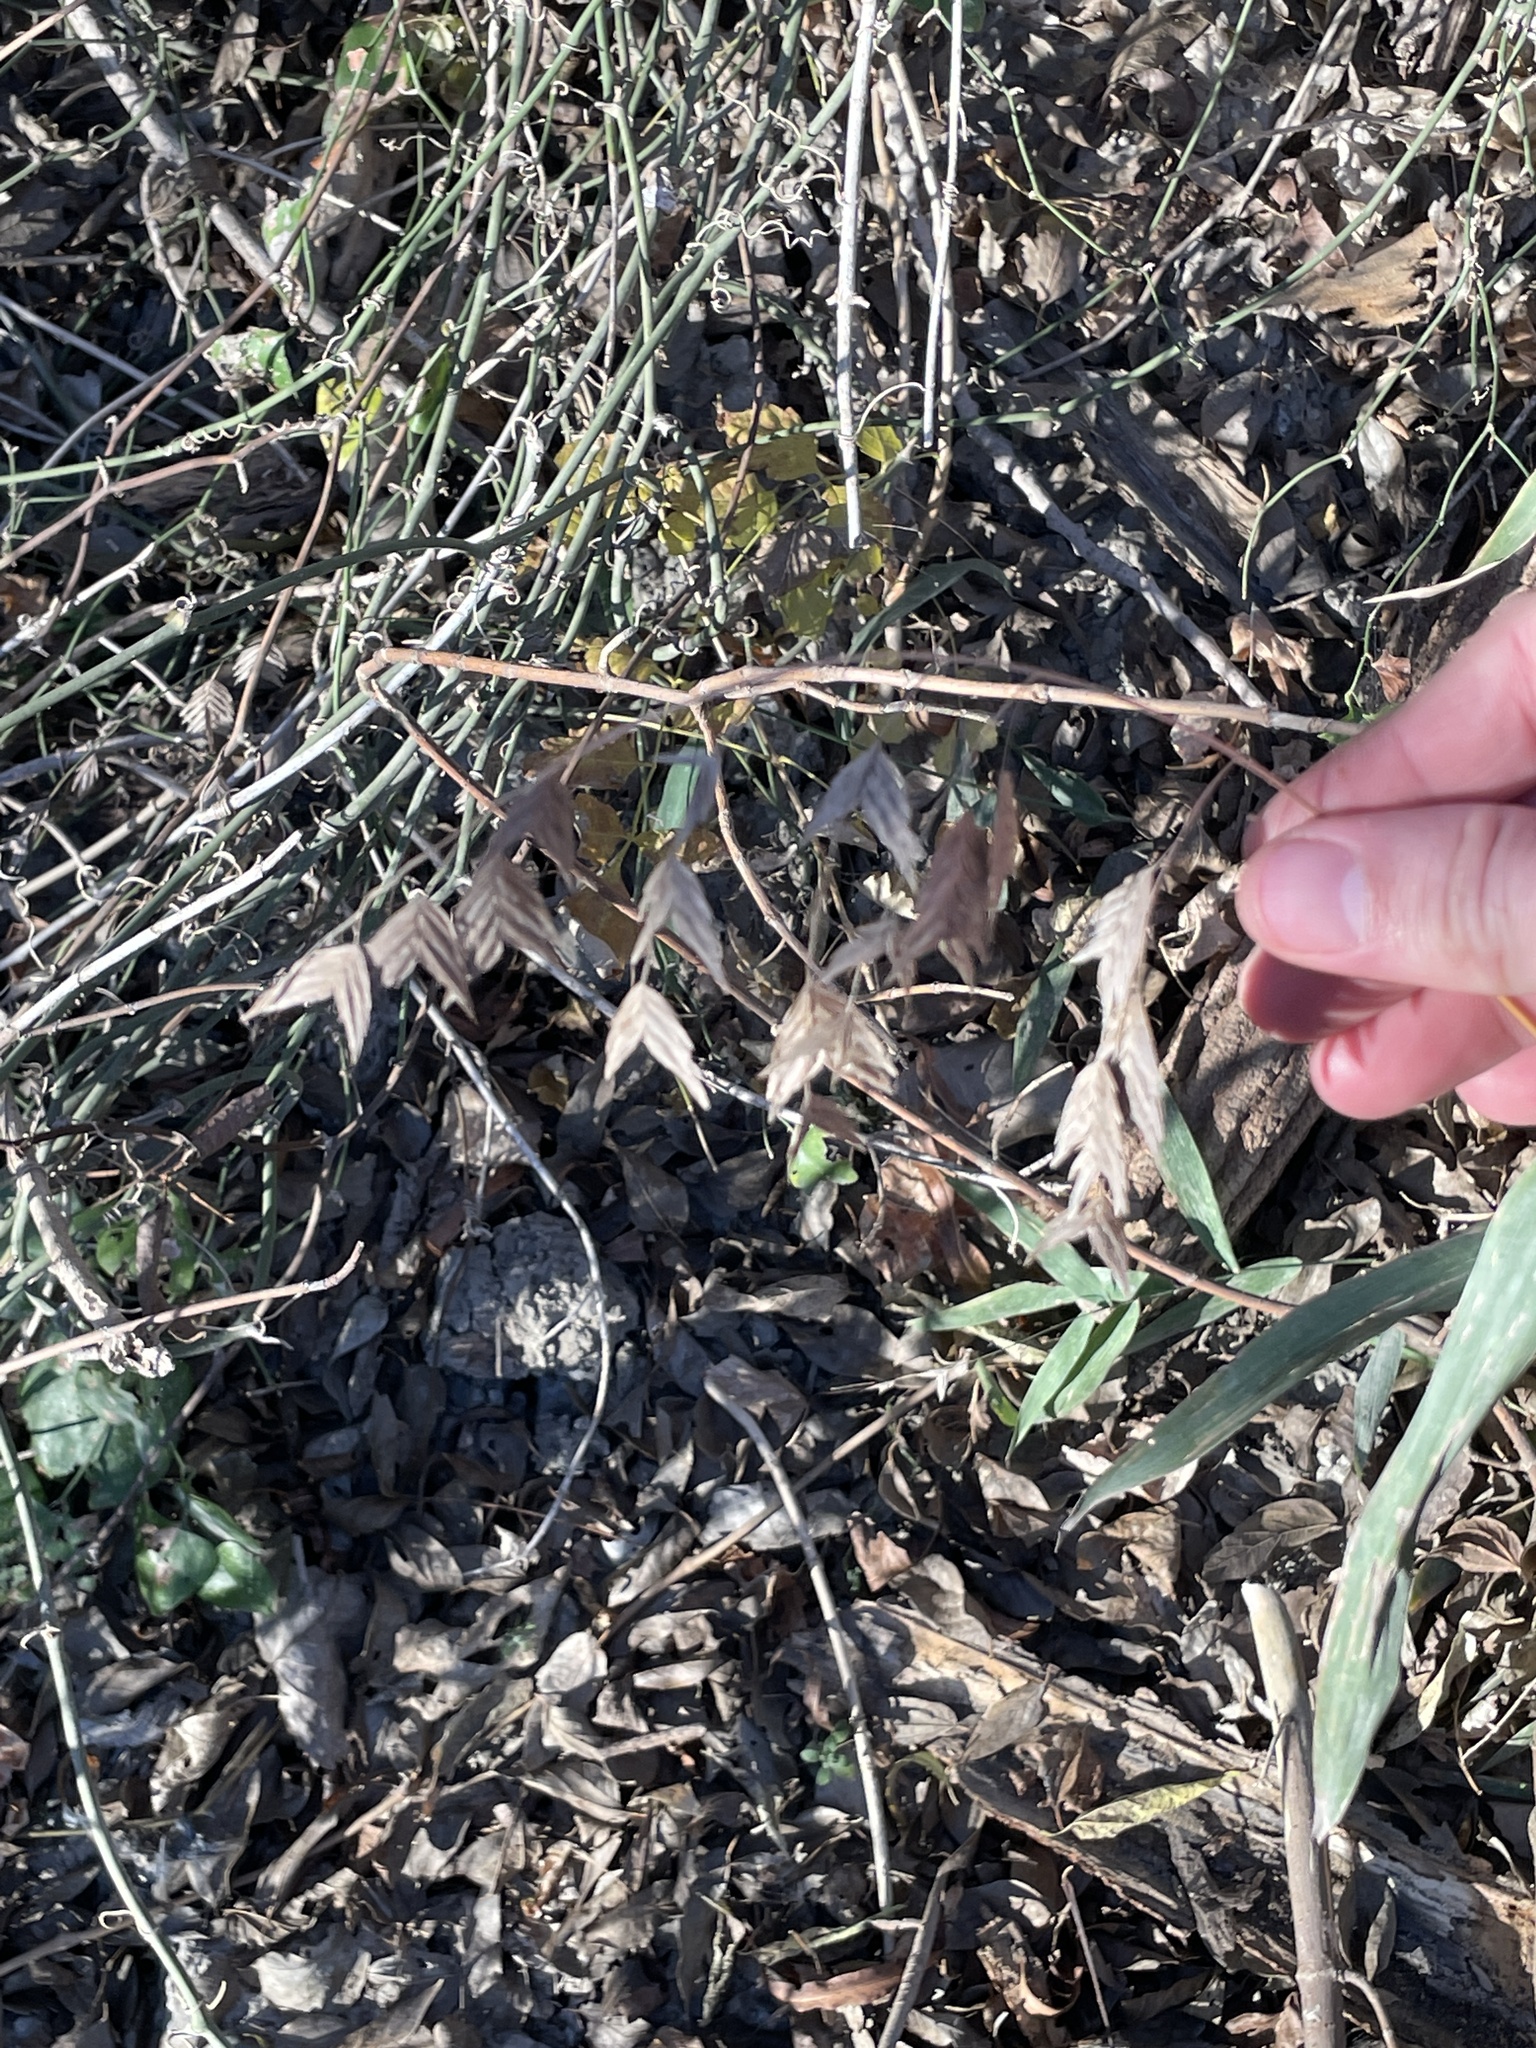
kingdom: Plantae
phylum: Tracheophyta
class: Liliopsida
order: Poales
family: Poaceae
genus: Chasmanthium
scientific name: Chasmanthium latifolium
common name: Broad-leaved chasmanthium
